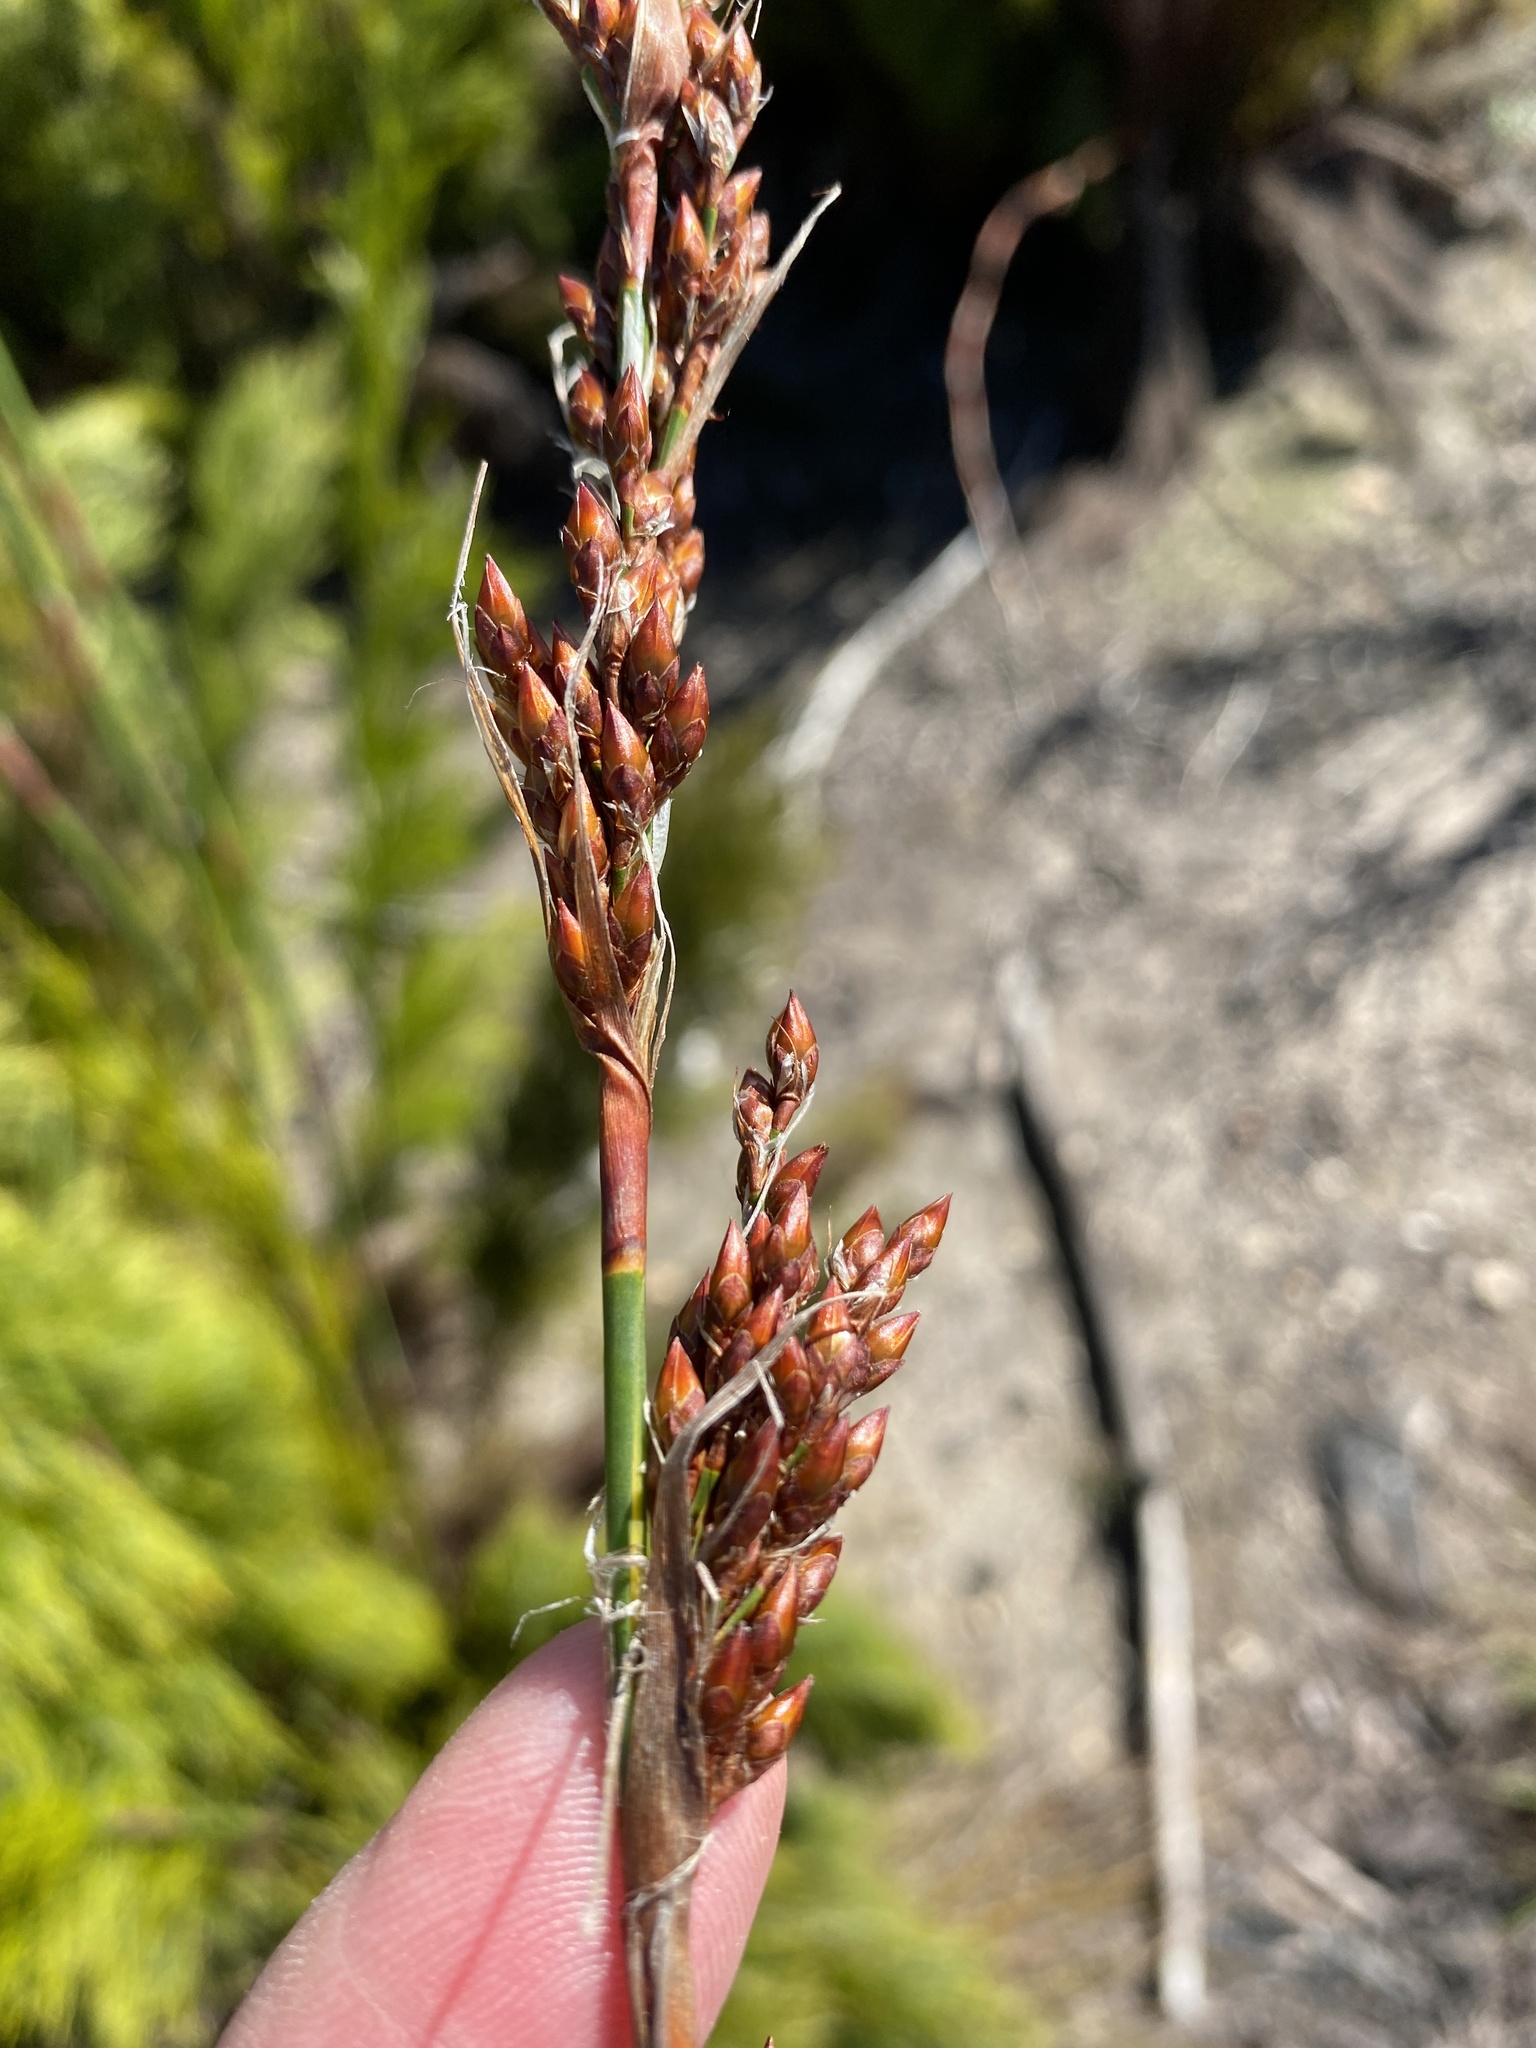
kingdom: Plantae
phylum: Tracheophyta
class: Liliopsida
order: Poales
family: Restionaceae
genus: Rhodocoma
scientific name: Rhodocoma gigantea
